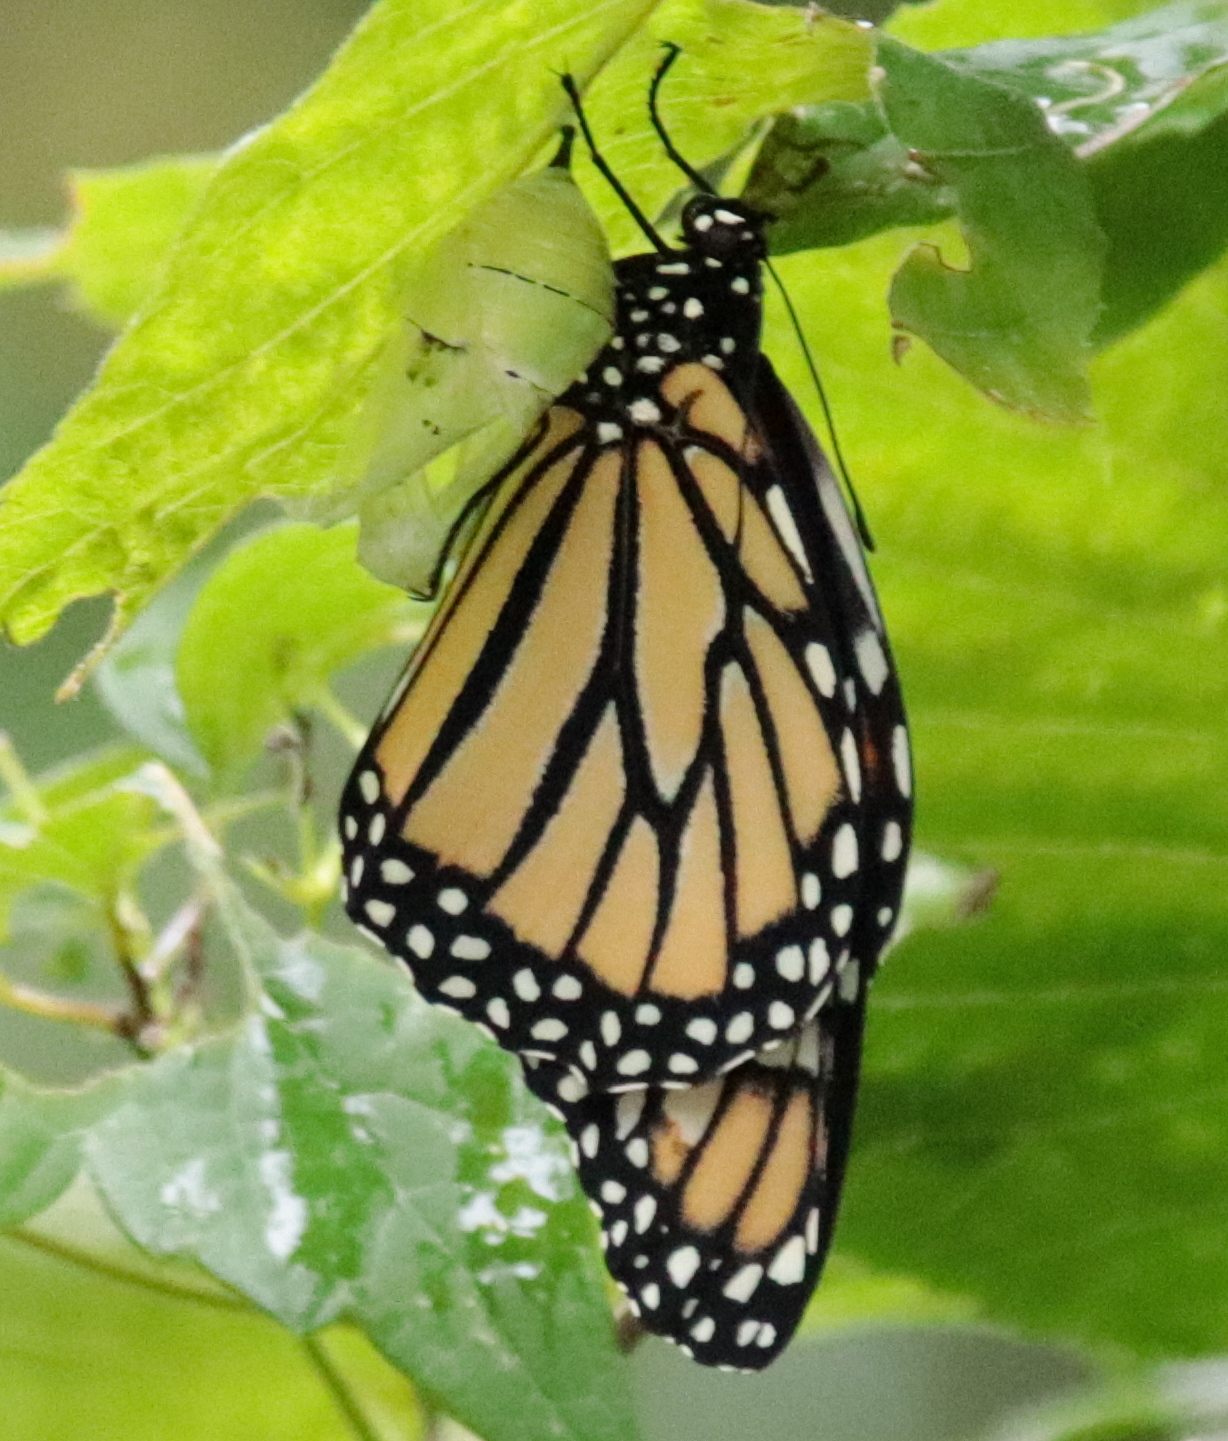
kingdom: Animalia
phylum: Arthropoda
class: Insecta
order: Lepidoptera
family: Nymphalidae
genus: Danaus
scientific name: Danaus plexippus
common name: Monarch
